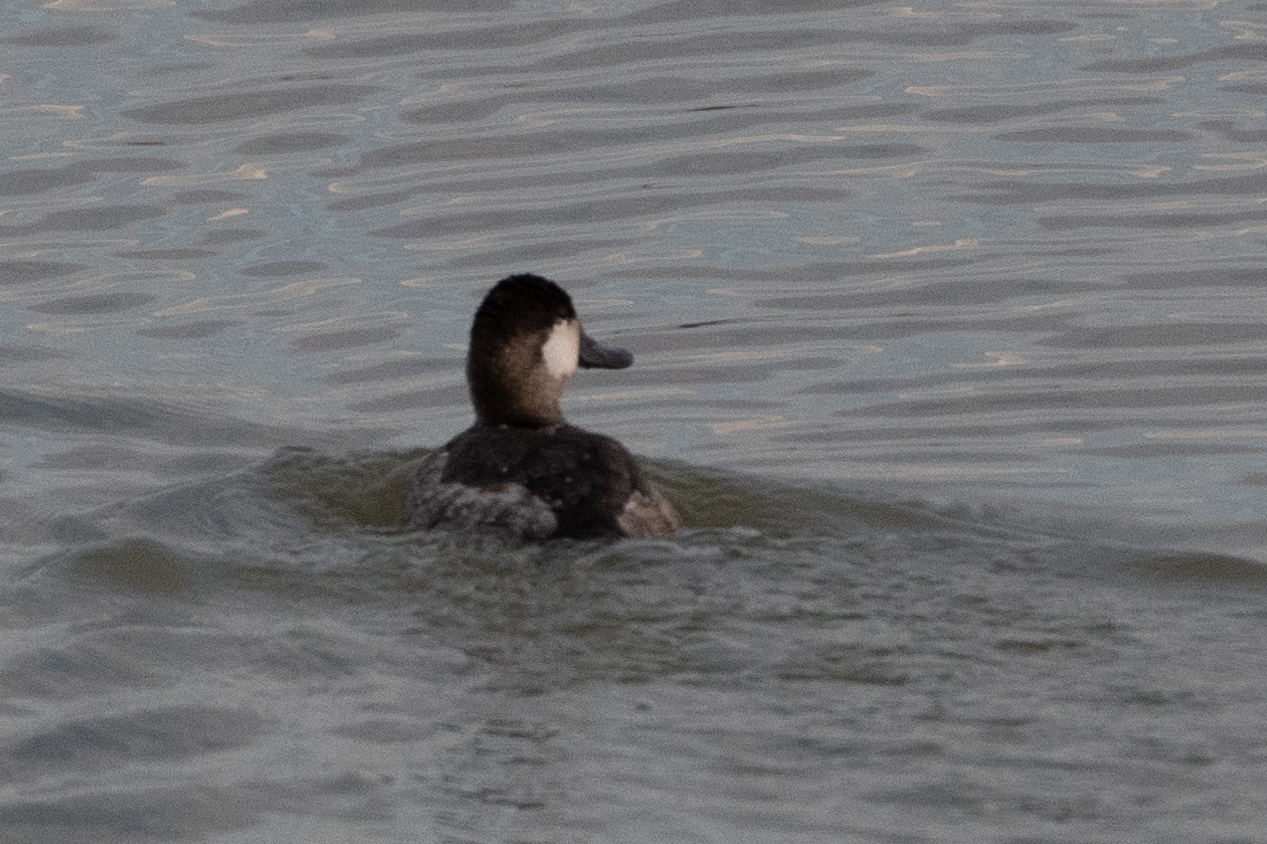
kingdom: Animalia
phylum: Chordata
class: Aves
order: Anseriformes
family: Anatidae
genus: Oxyura
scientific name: Oxyura jamaicensis
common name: Ruddy duck
